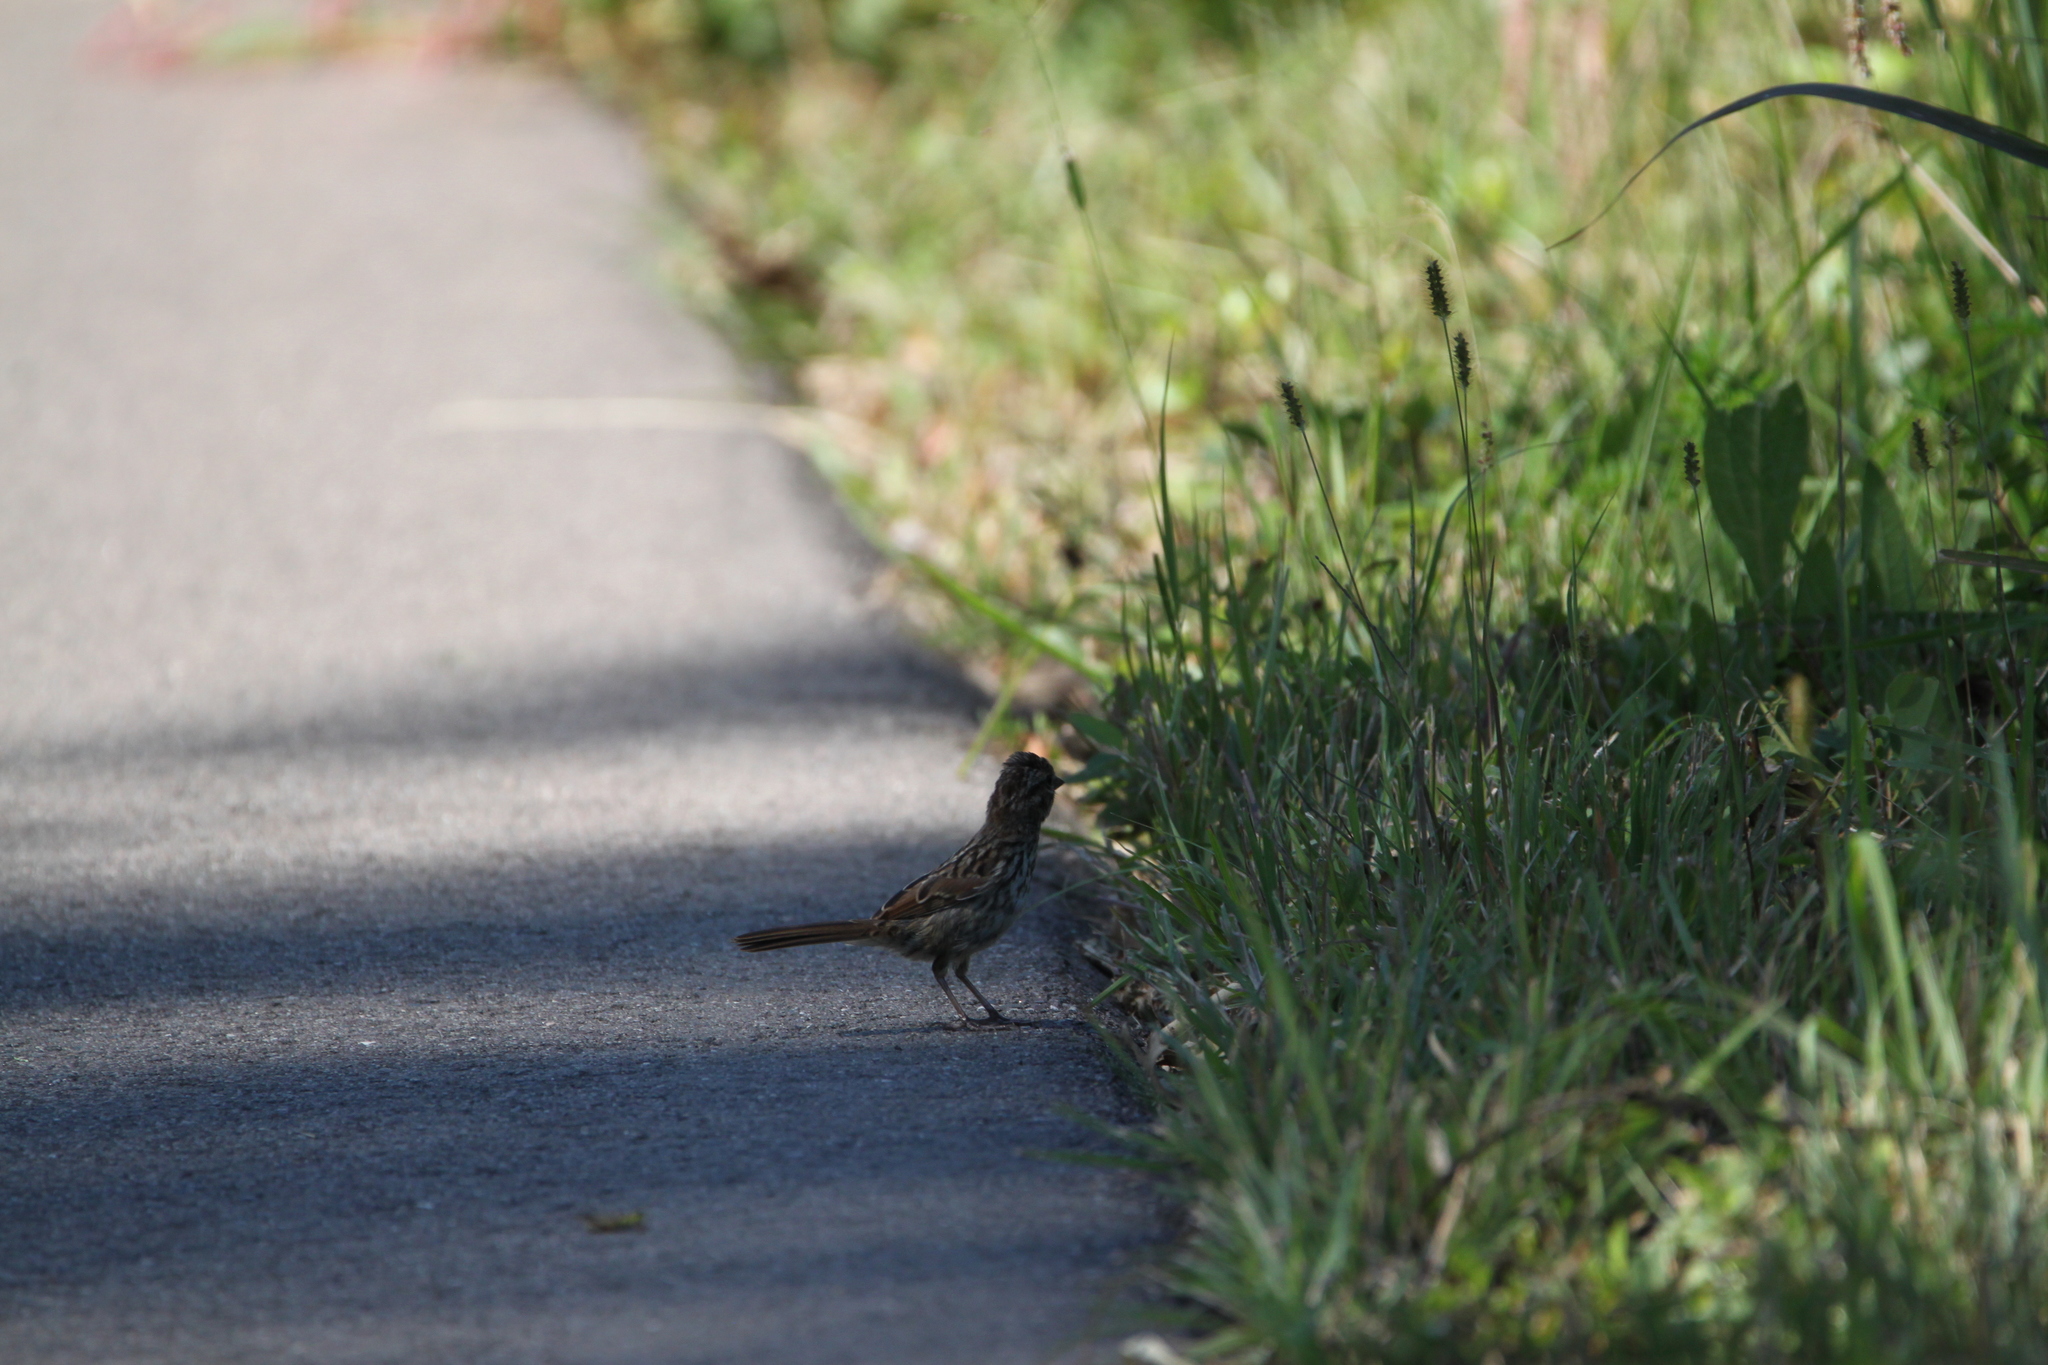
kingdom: Animalia
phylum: Chordata
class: Aves
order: Passeriformes
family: Passerellidae
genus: Melospiza
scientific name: Melospiza melodia
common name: Song sparrow
